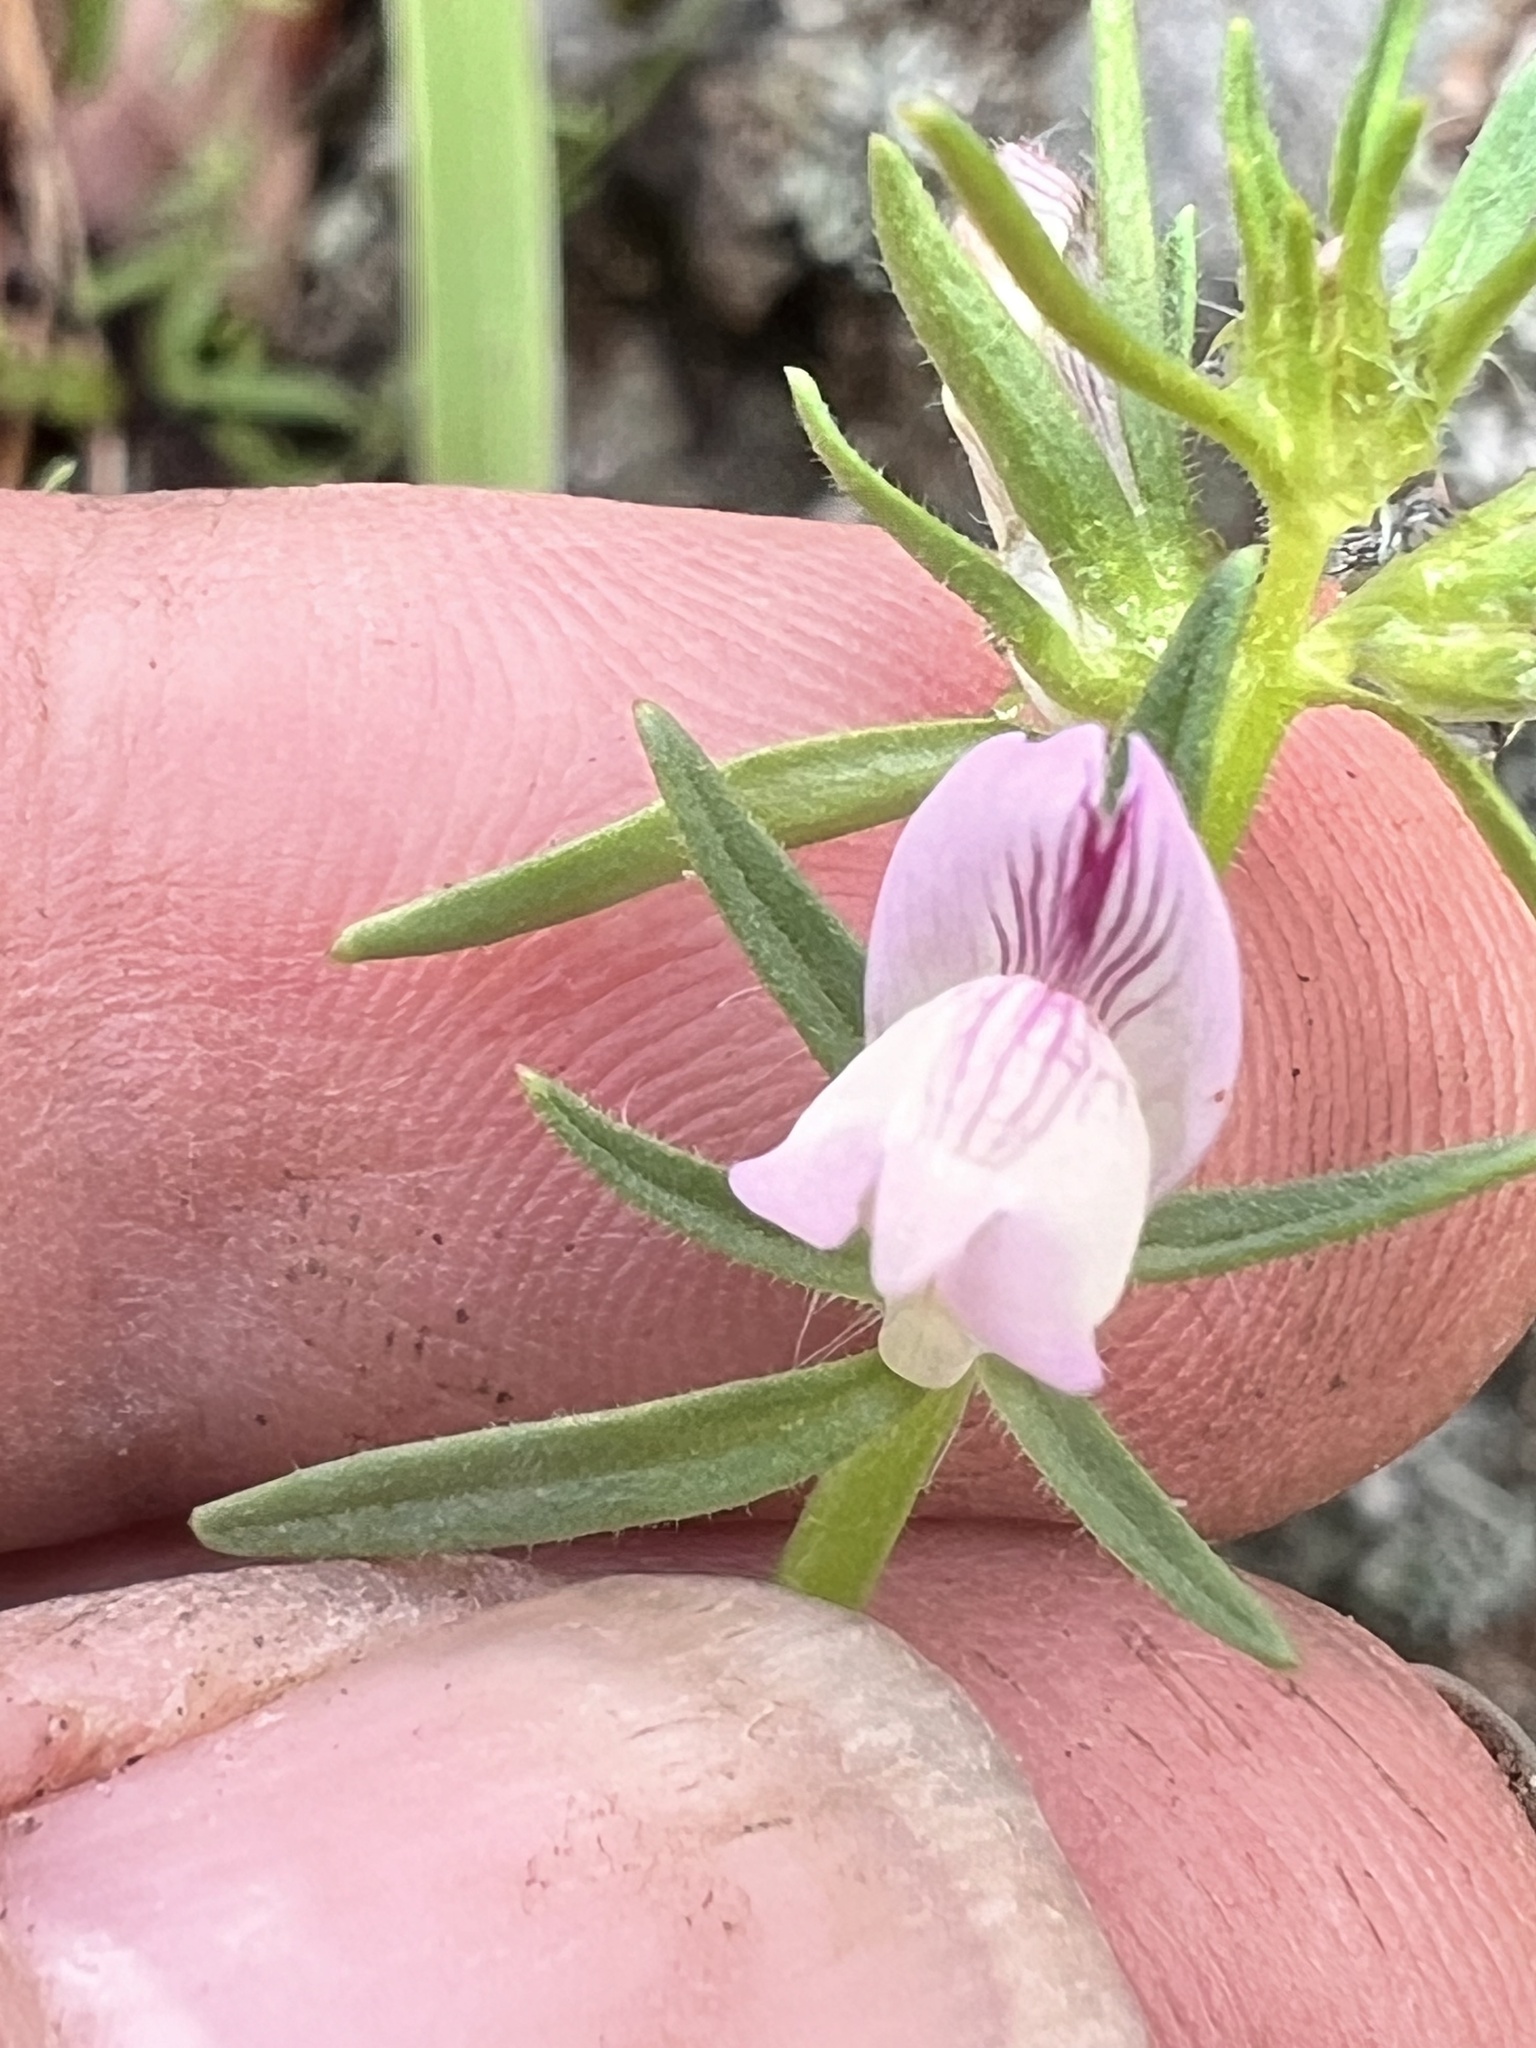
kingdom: Plantae
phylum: Tracheophyta
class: Magnoliopsida
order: Lamiales
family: Plantaginaceae
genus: Misopates
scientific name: Misopates orontium
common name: Weasel's-snout
